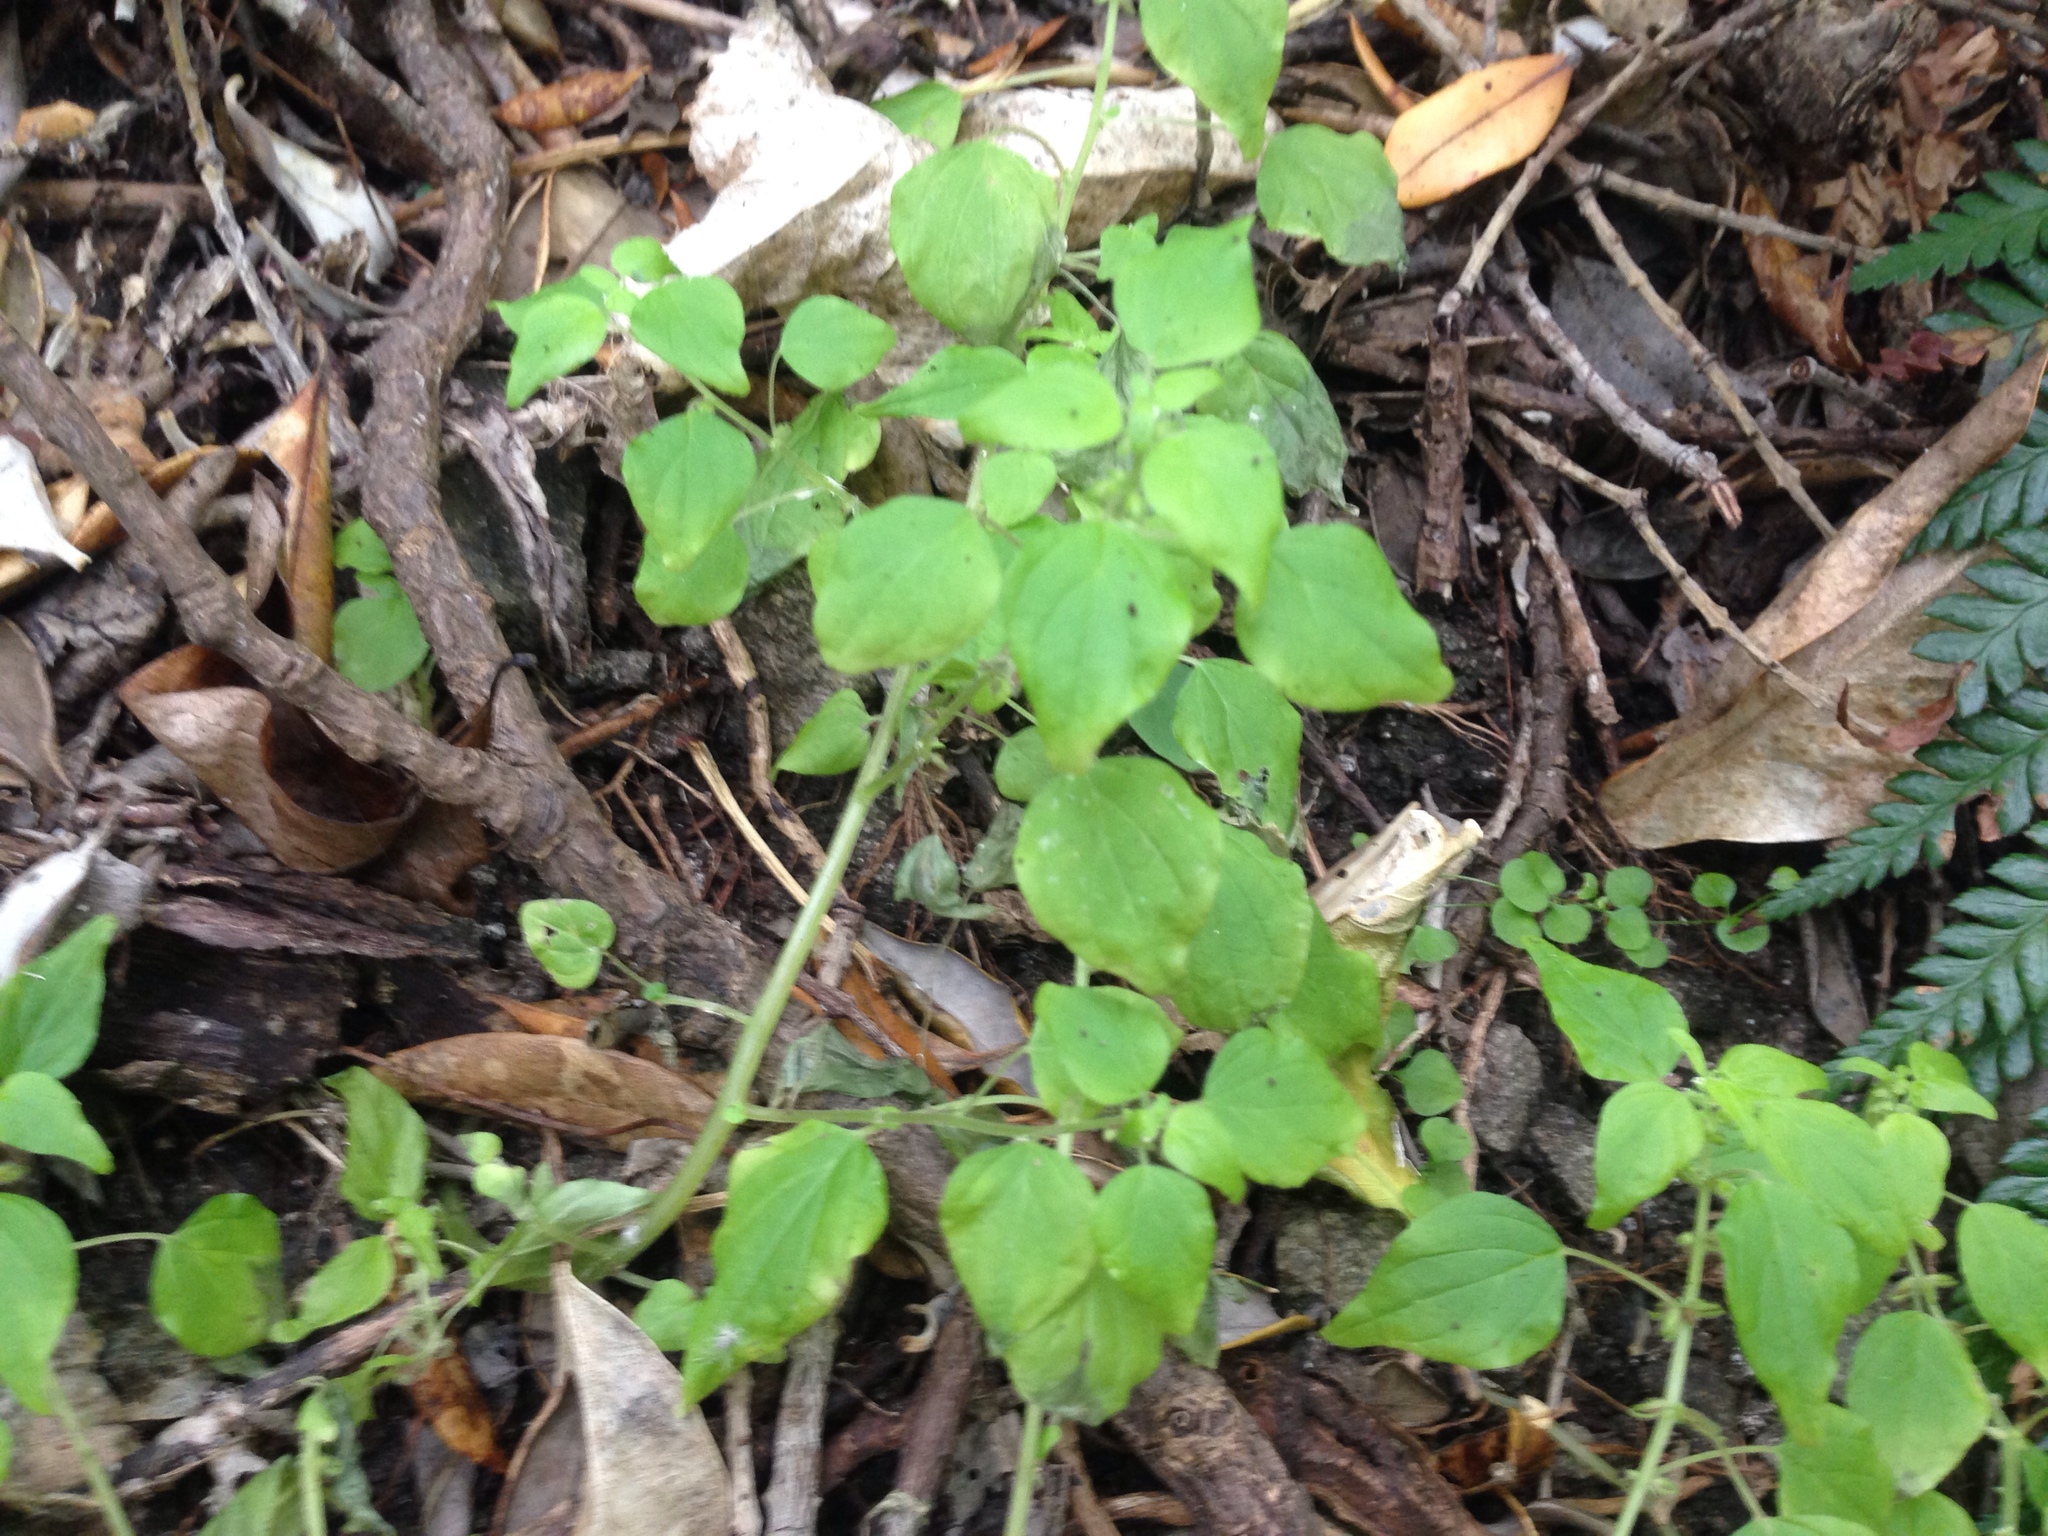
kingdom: Plantae
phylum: Tracheophyta
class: Magnoliopsida
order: Rosales
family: Urticaceae
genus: Parietaria
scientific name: Parietaria debilis
